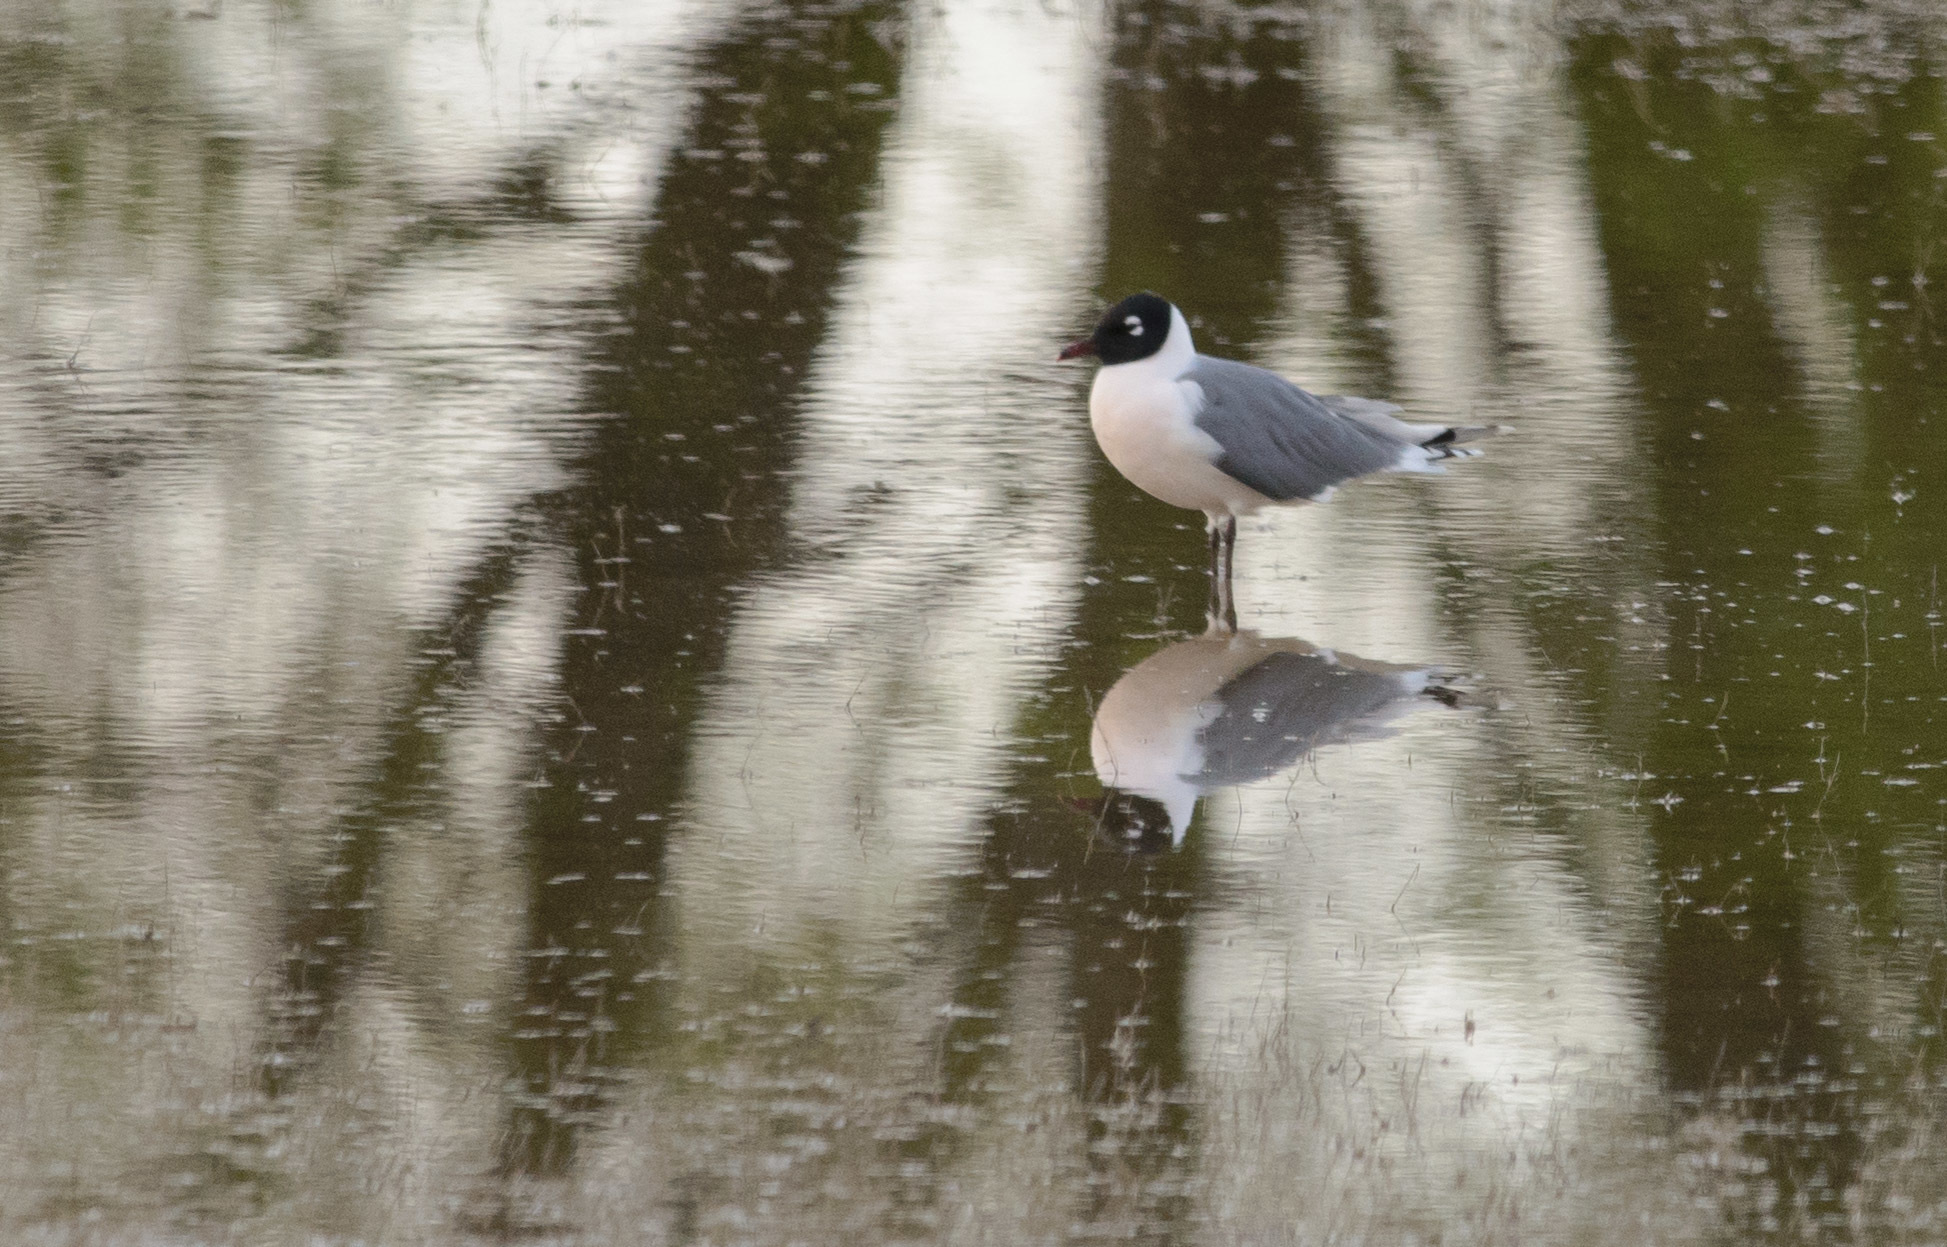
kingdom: Animalia
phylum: Chordata
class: Aves
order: Charadriiformes
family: Laridae
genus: Leucophaeus
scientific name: Leucophaeus pipixcan
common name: Franklin's gull
